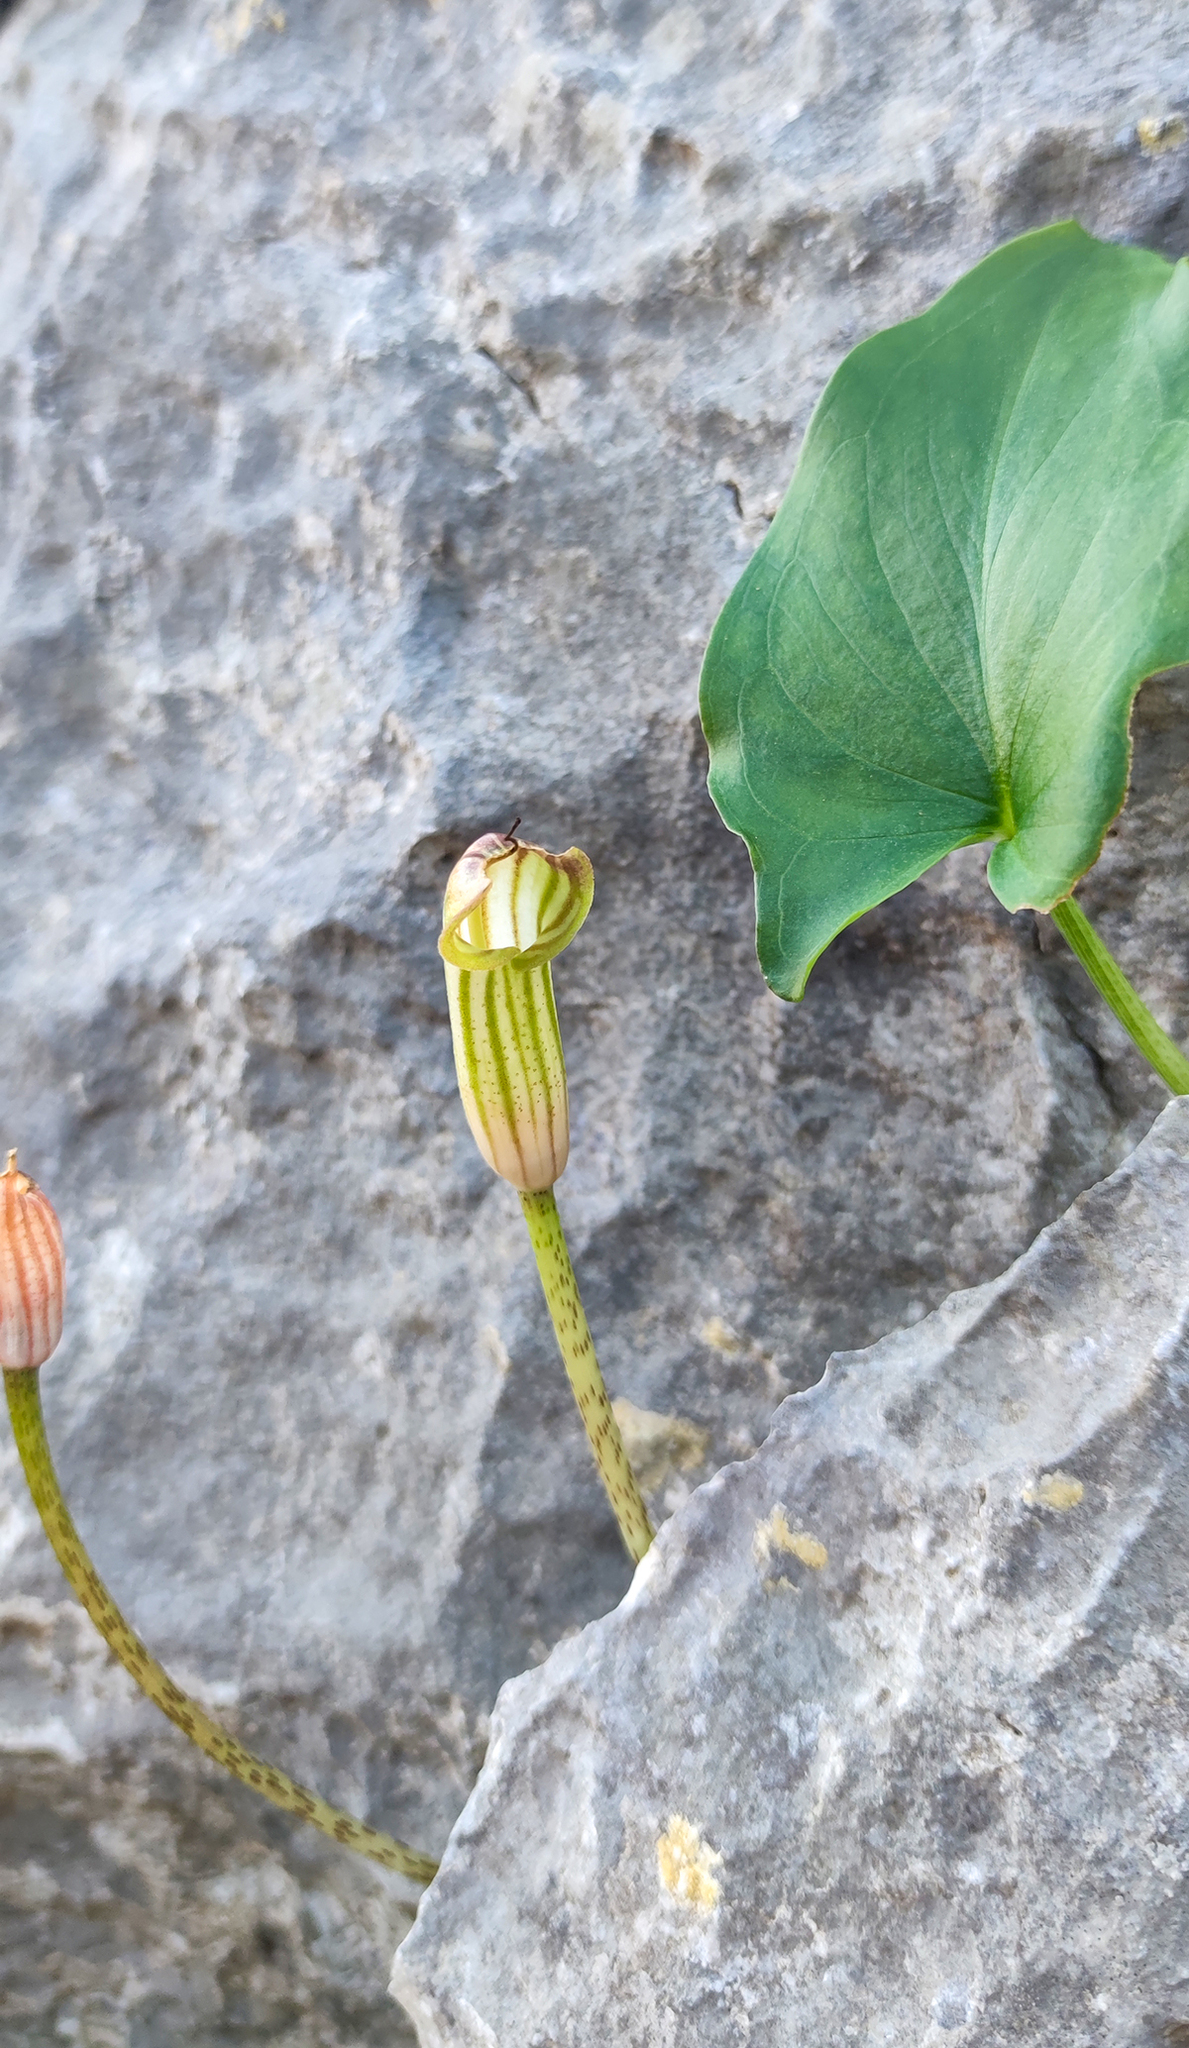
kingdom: Plantae
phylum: Tracheophyta
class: Liliopsida
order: Alismatales
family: Araceae
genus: Arisarum
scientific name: Arisarum vulgare
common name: Common arisarum
